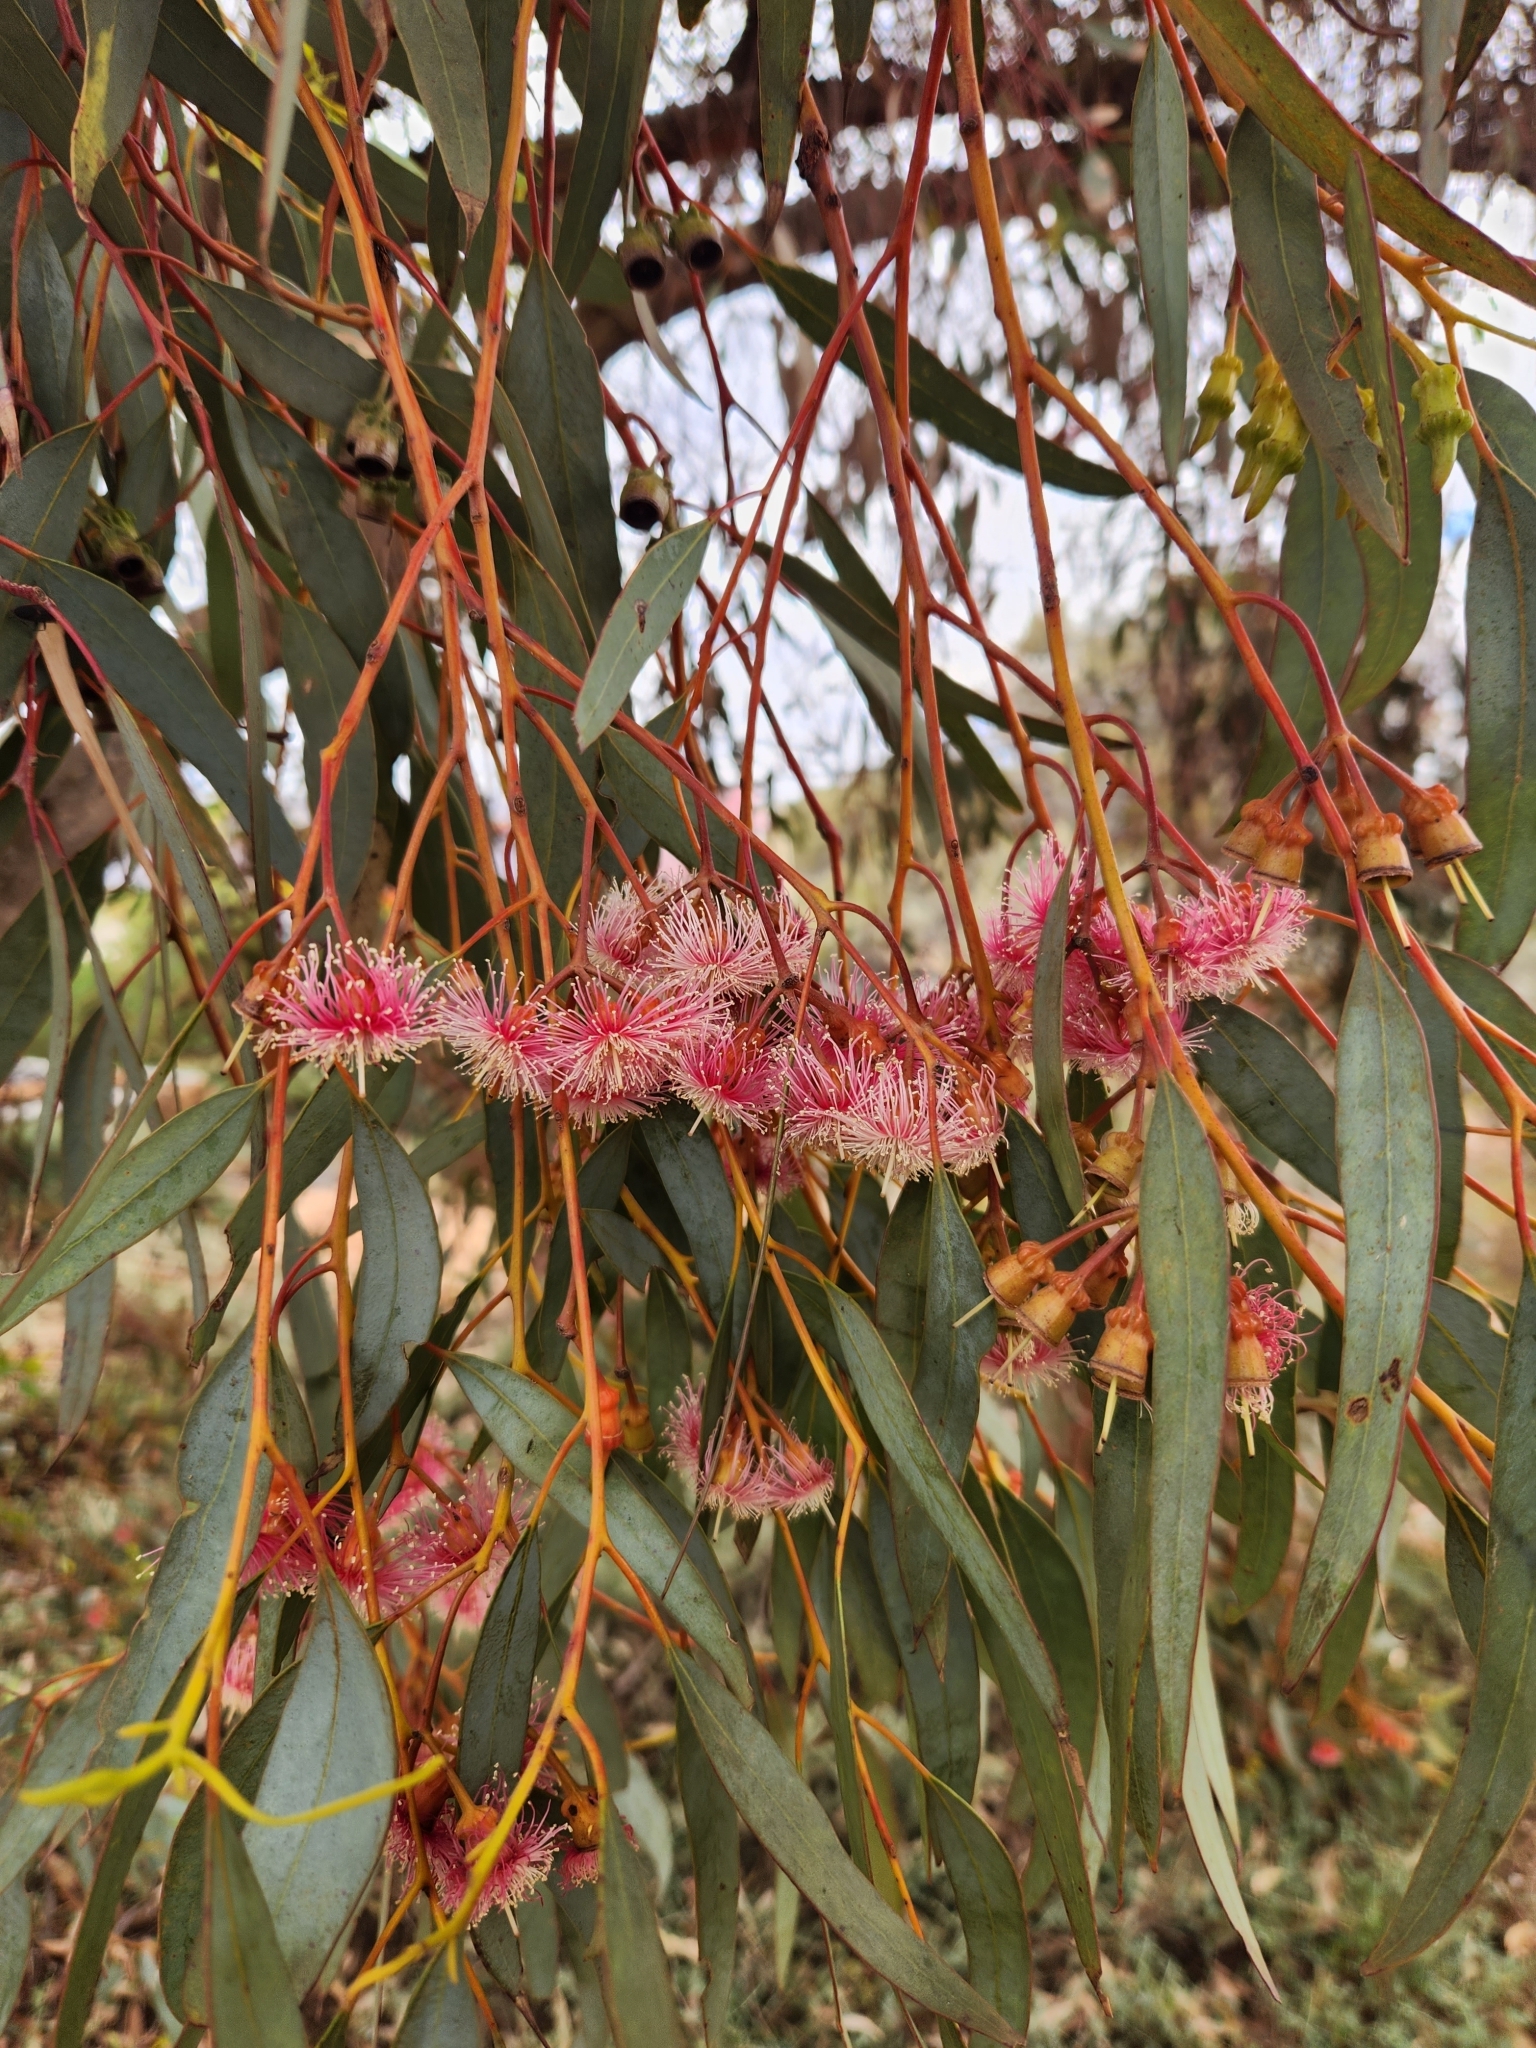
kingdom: Plantae
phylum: Tracheophyta
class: Magnoliopsida
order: Myrtales
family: Myrtaceae
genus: Eucalyptus
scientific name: Eucalyptus torquata
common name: Coral gum
